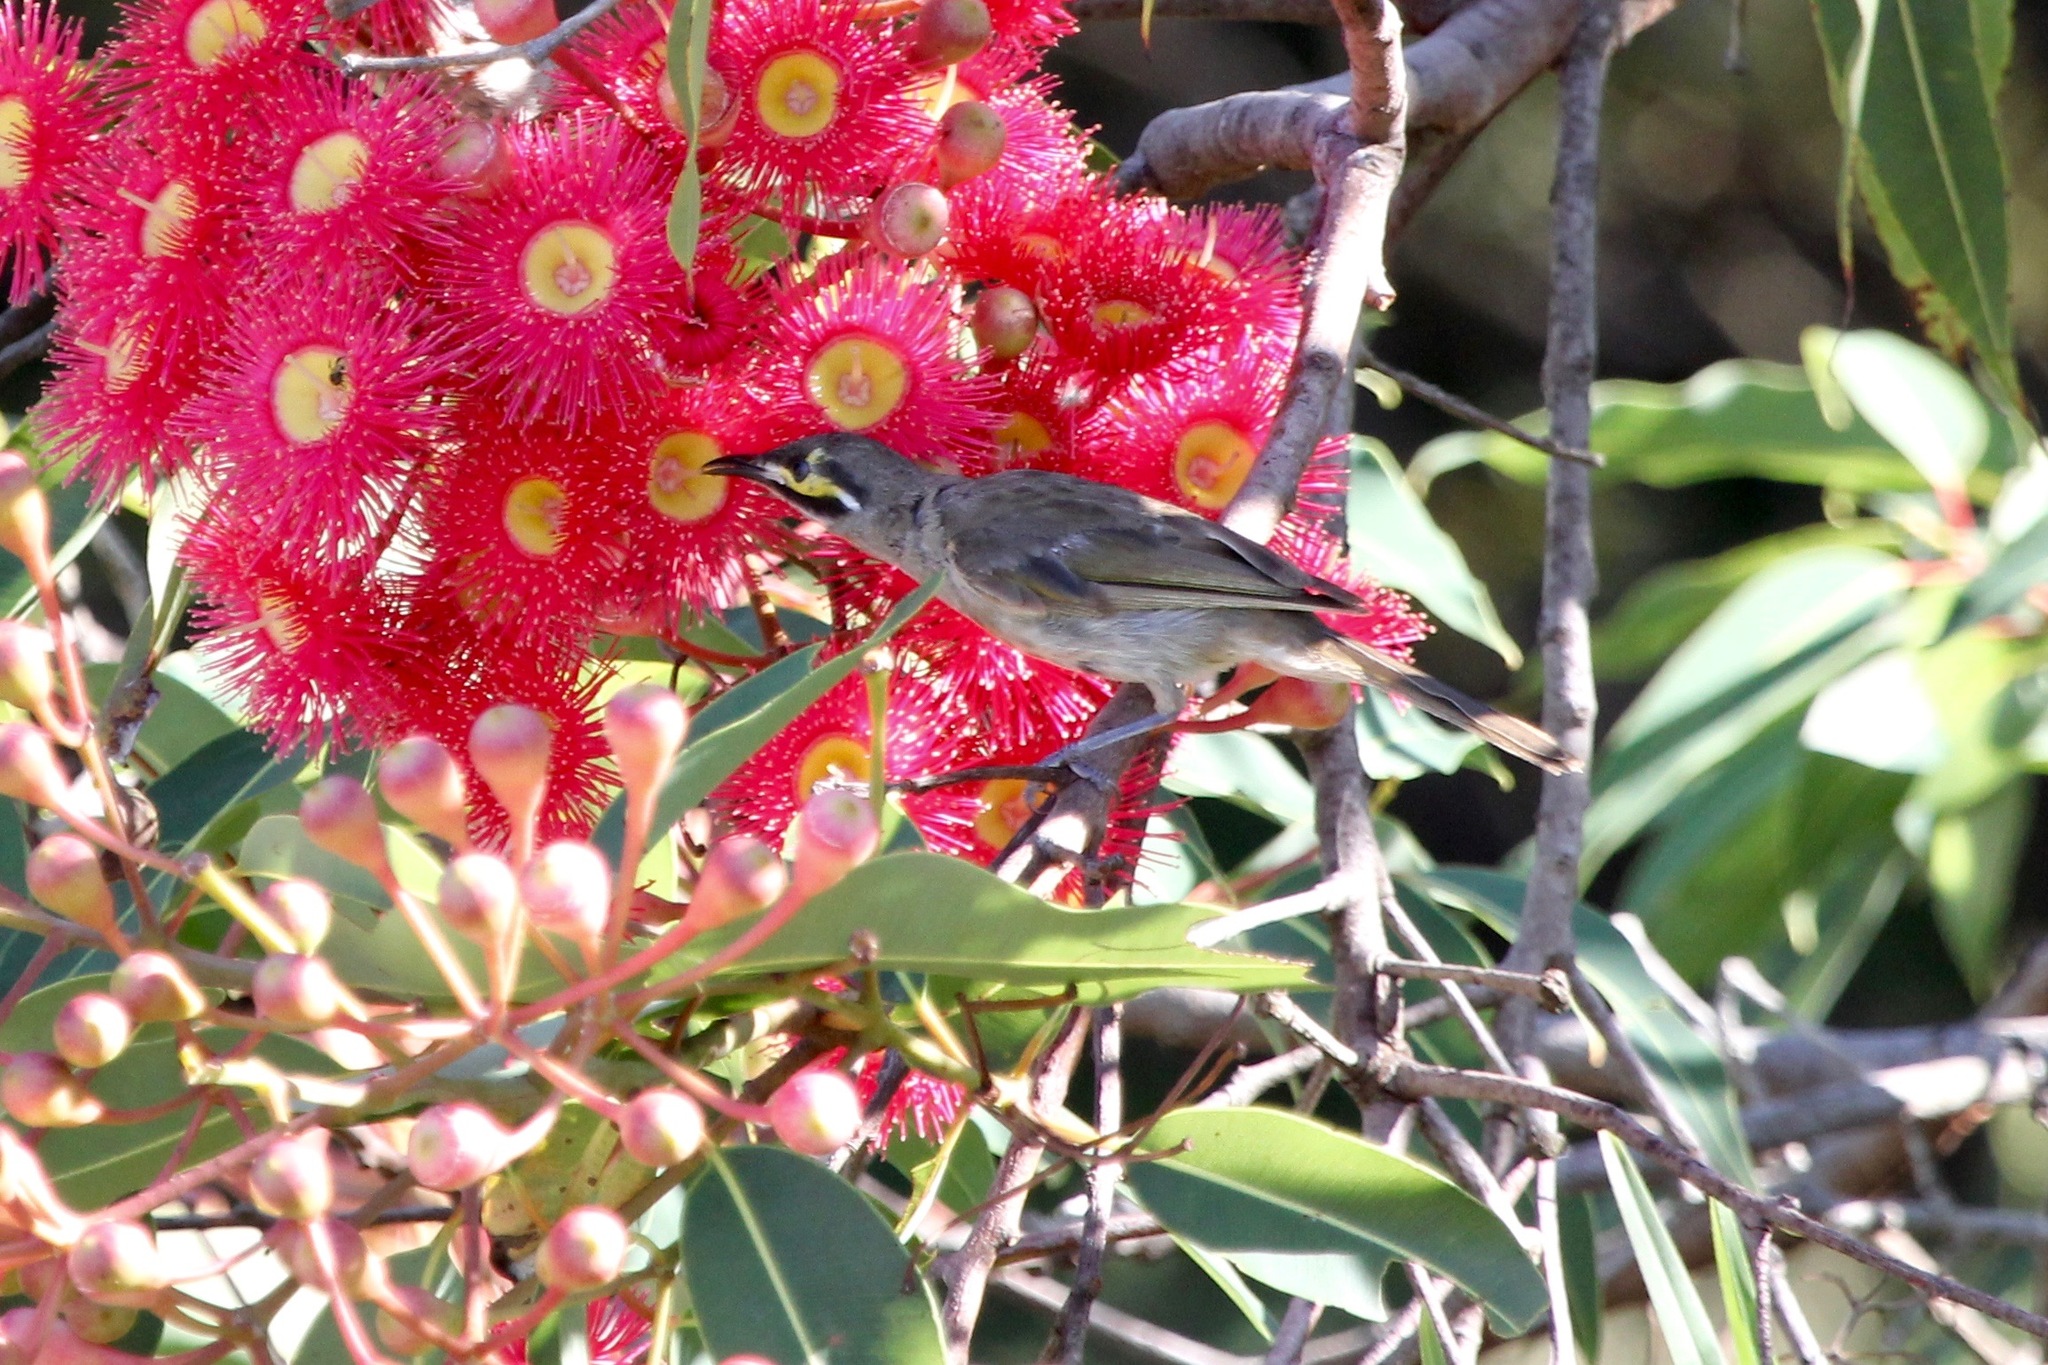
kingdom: Animalia
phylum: Chordata
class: Aves
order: Passeriformes
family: Meliphagidae
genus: Caligavis
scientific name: Caligavis chrysops
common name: Yellow-faced honeyeater
